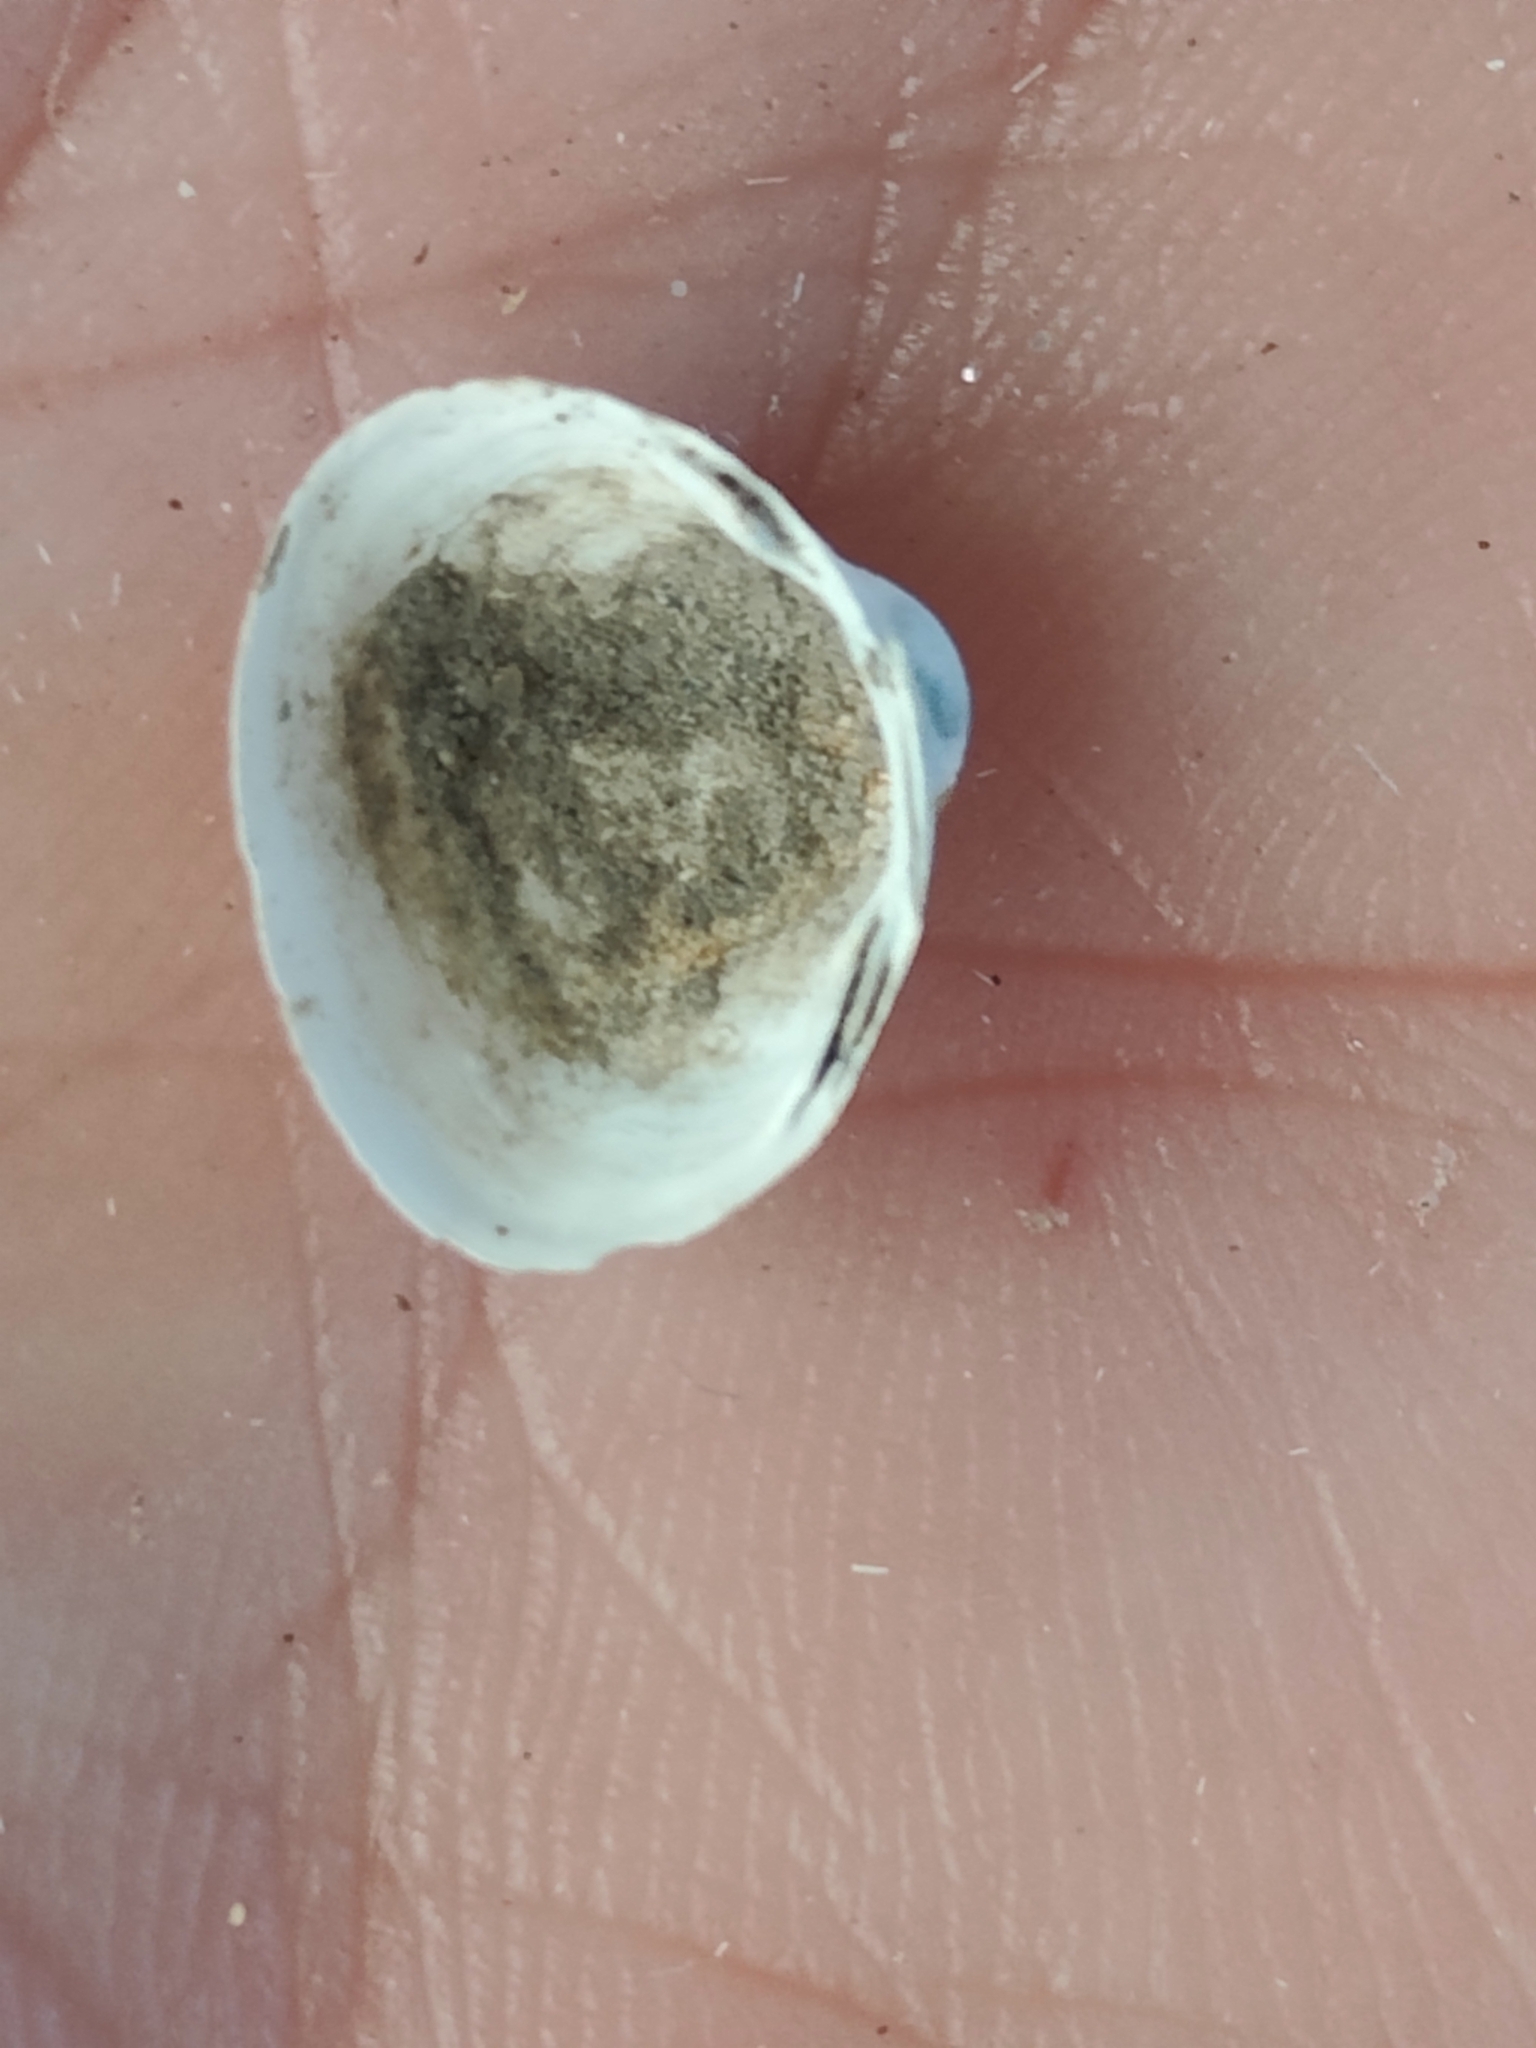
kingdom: Animalia
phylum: Mollusca
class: Bivalvia
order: Sphaeriida
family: Sphaeriidae
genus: Sphaerium
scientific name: Sphaerium striatinum
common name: Striated fingernailclam
